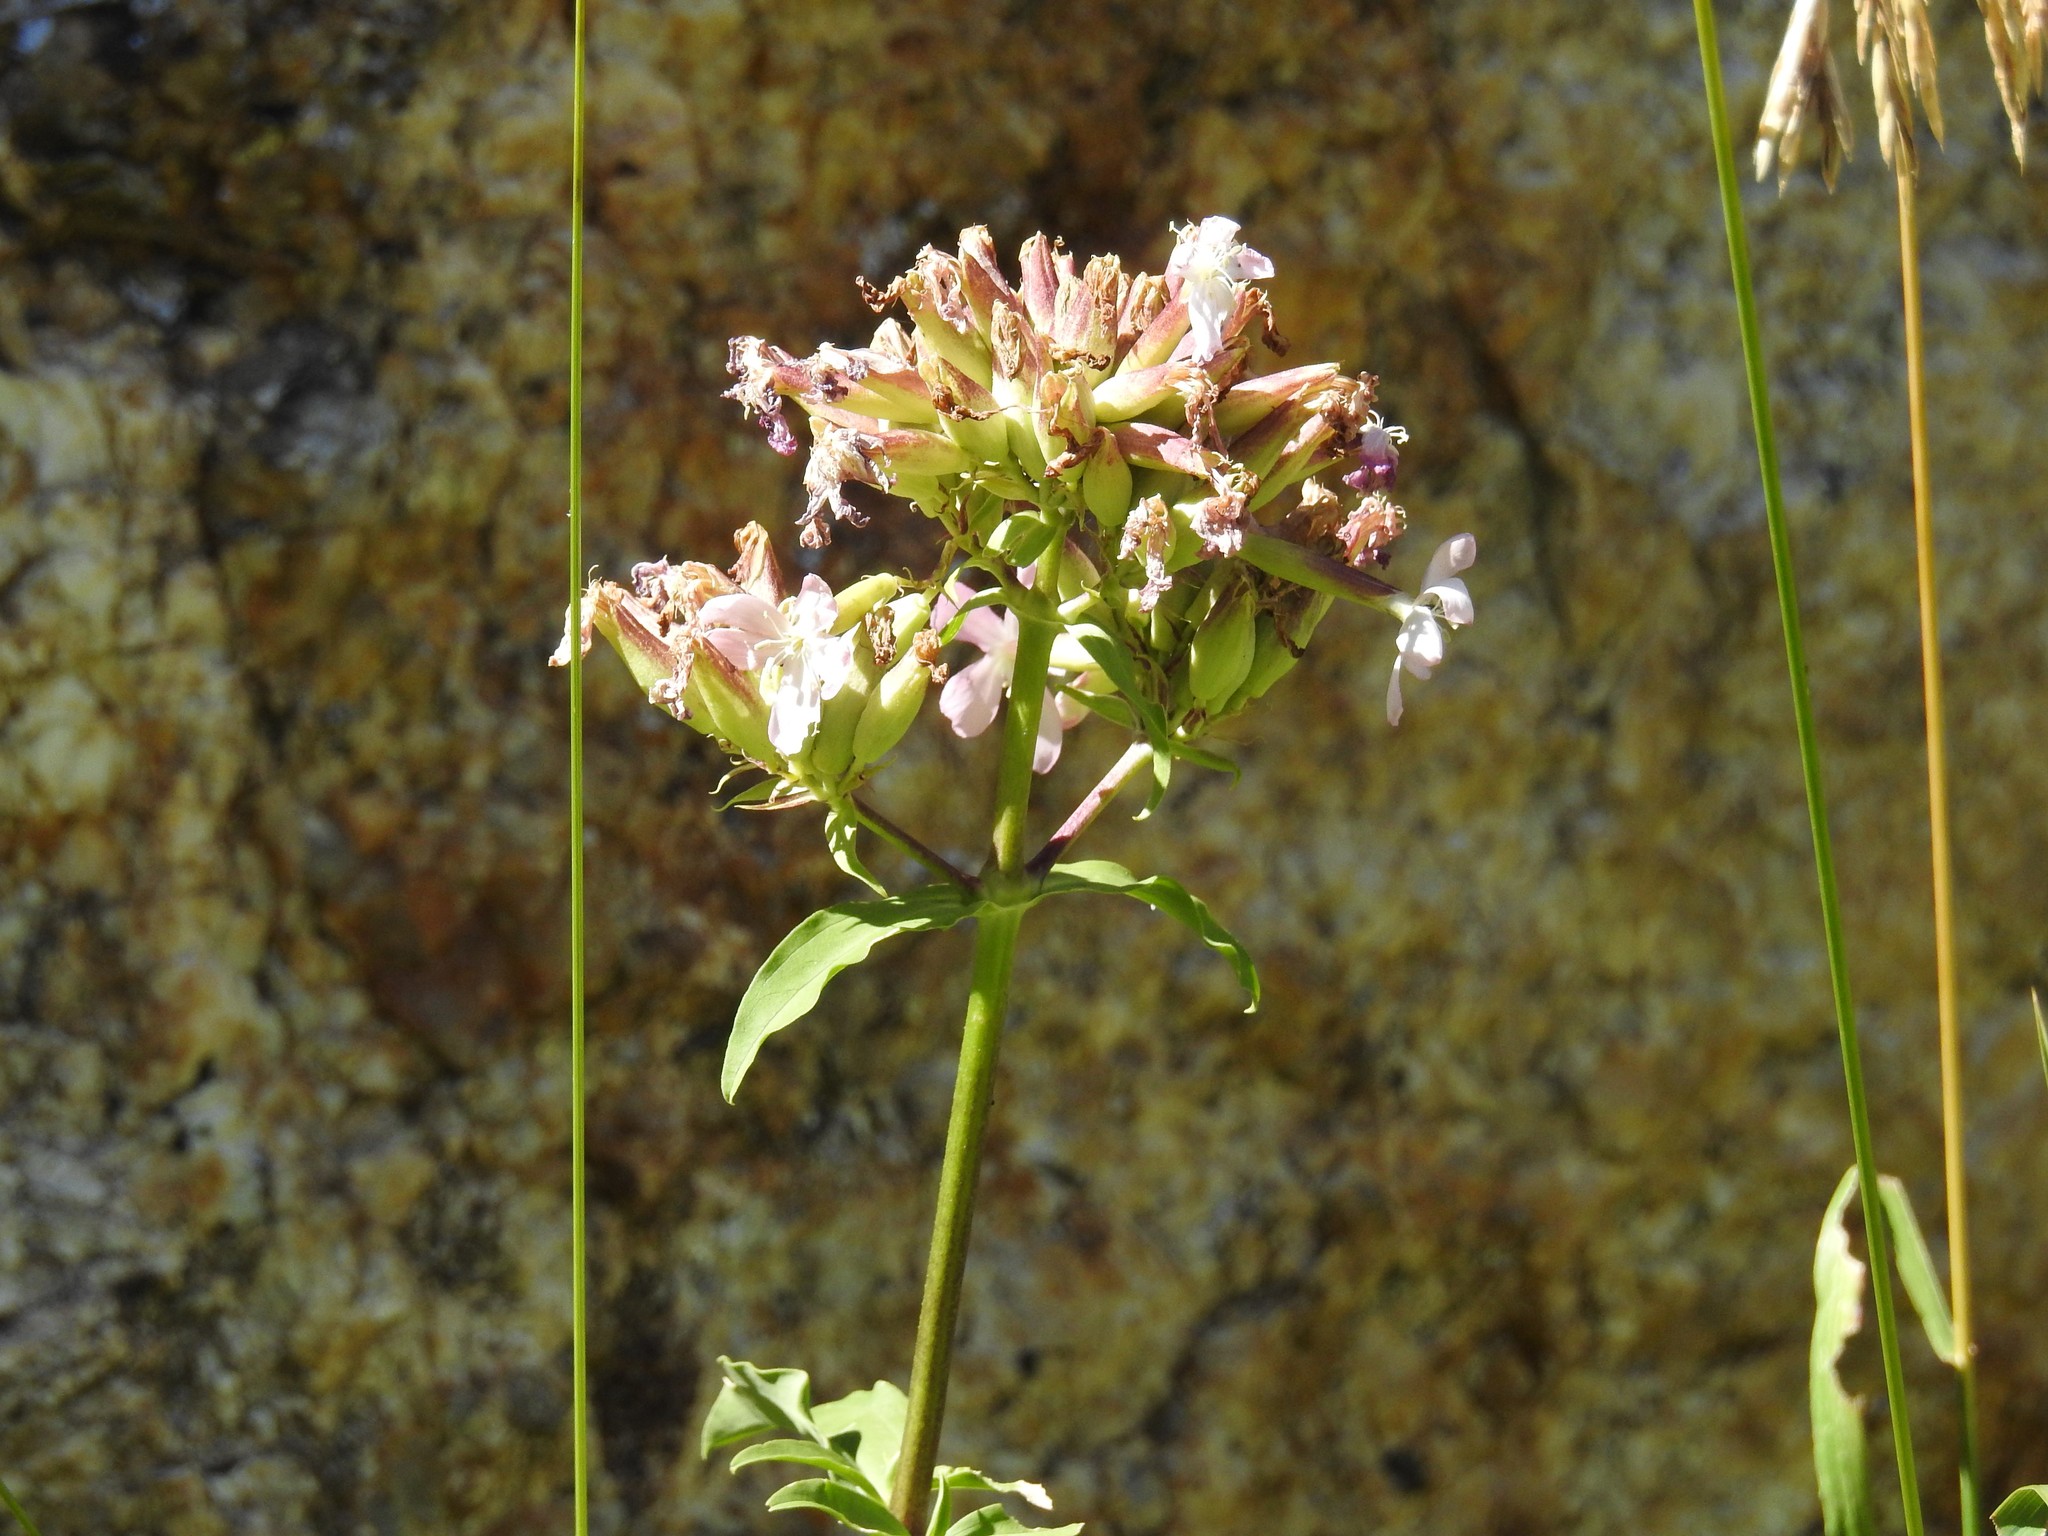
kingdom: Plantae
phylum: Tracheophyta
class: Magnoliopsida
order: Caryophyllales
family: Caryophyllaceae
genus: Saponaria
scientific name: Saponaria officinalis
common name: Soapwort
